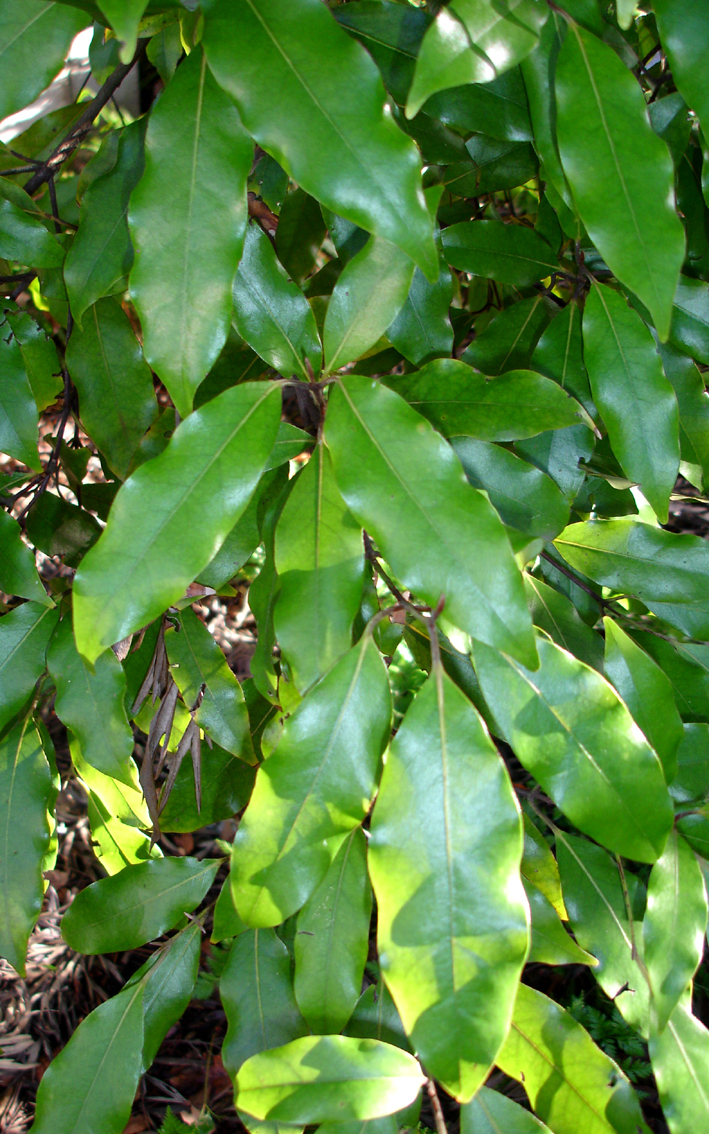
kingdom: Plantae
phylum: Tracheophyta
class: Magnoliopsida
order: Laurales
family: Lauraceae
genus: Beilschmiedia
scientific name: Beilschmiedia tawa
